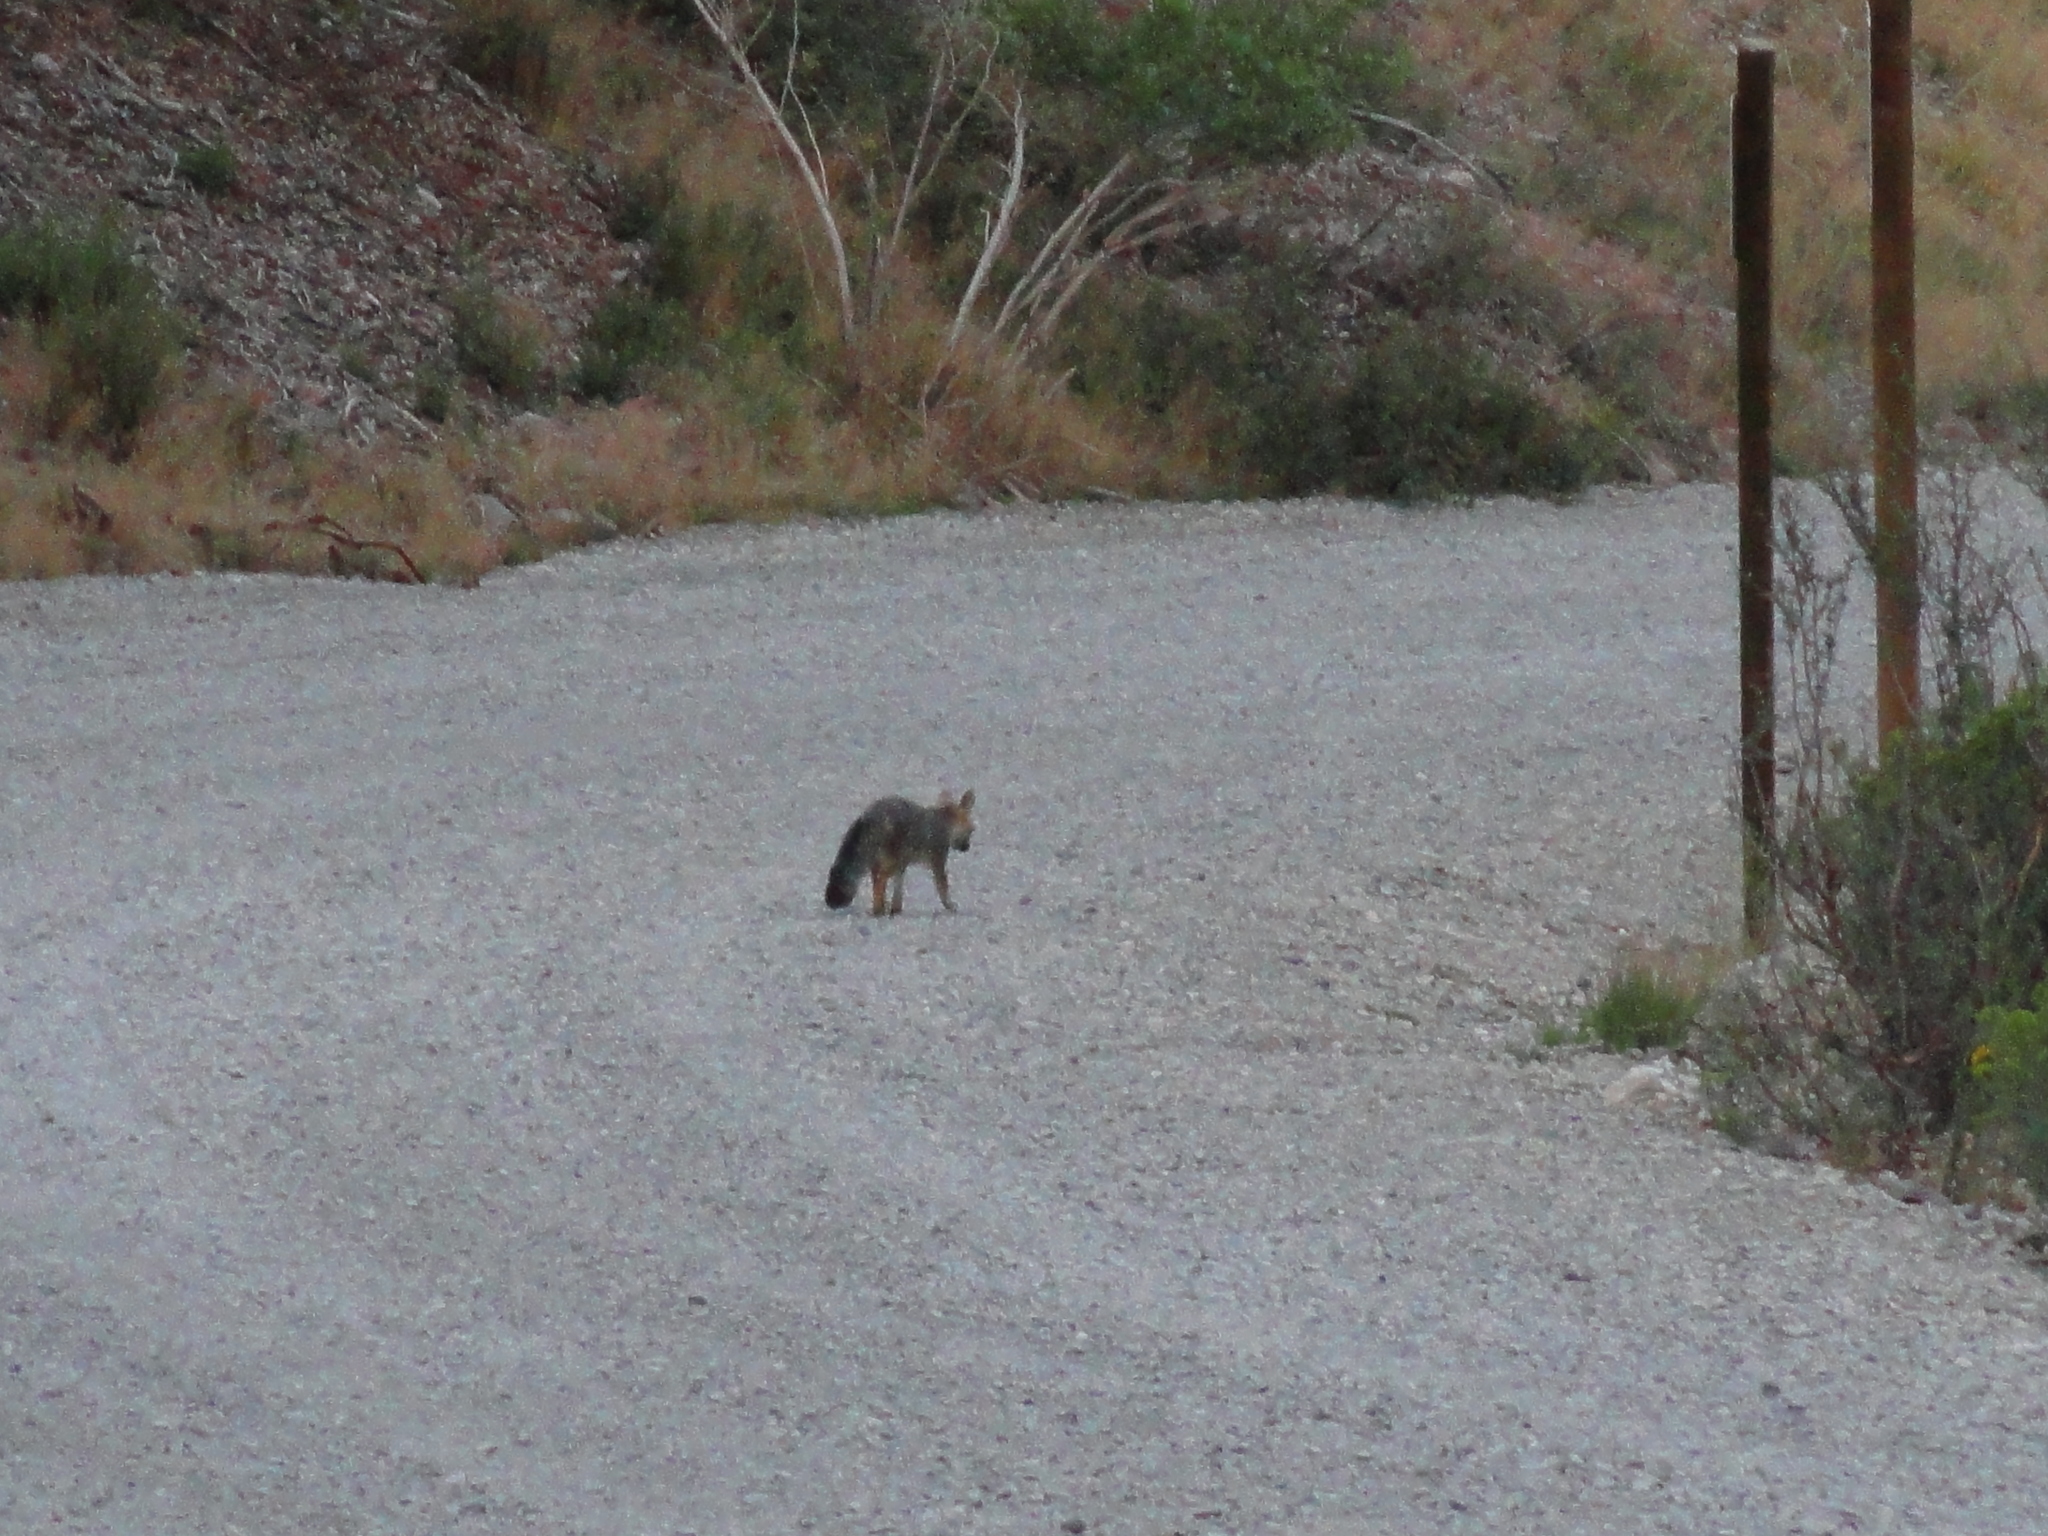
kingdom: Animalia
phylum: Chordata
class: Mammalia
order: Carnivora
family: Canidae
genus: Urocyon
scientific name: Urocyon cinereoargenteus
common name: Gray fox
